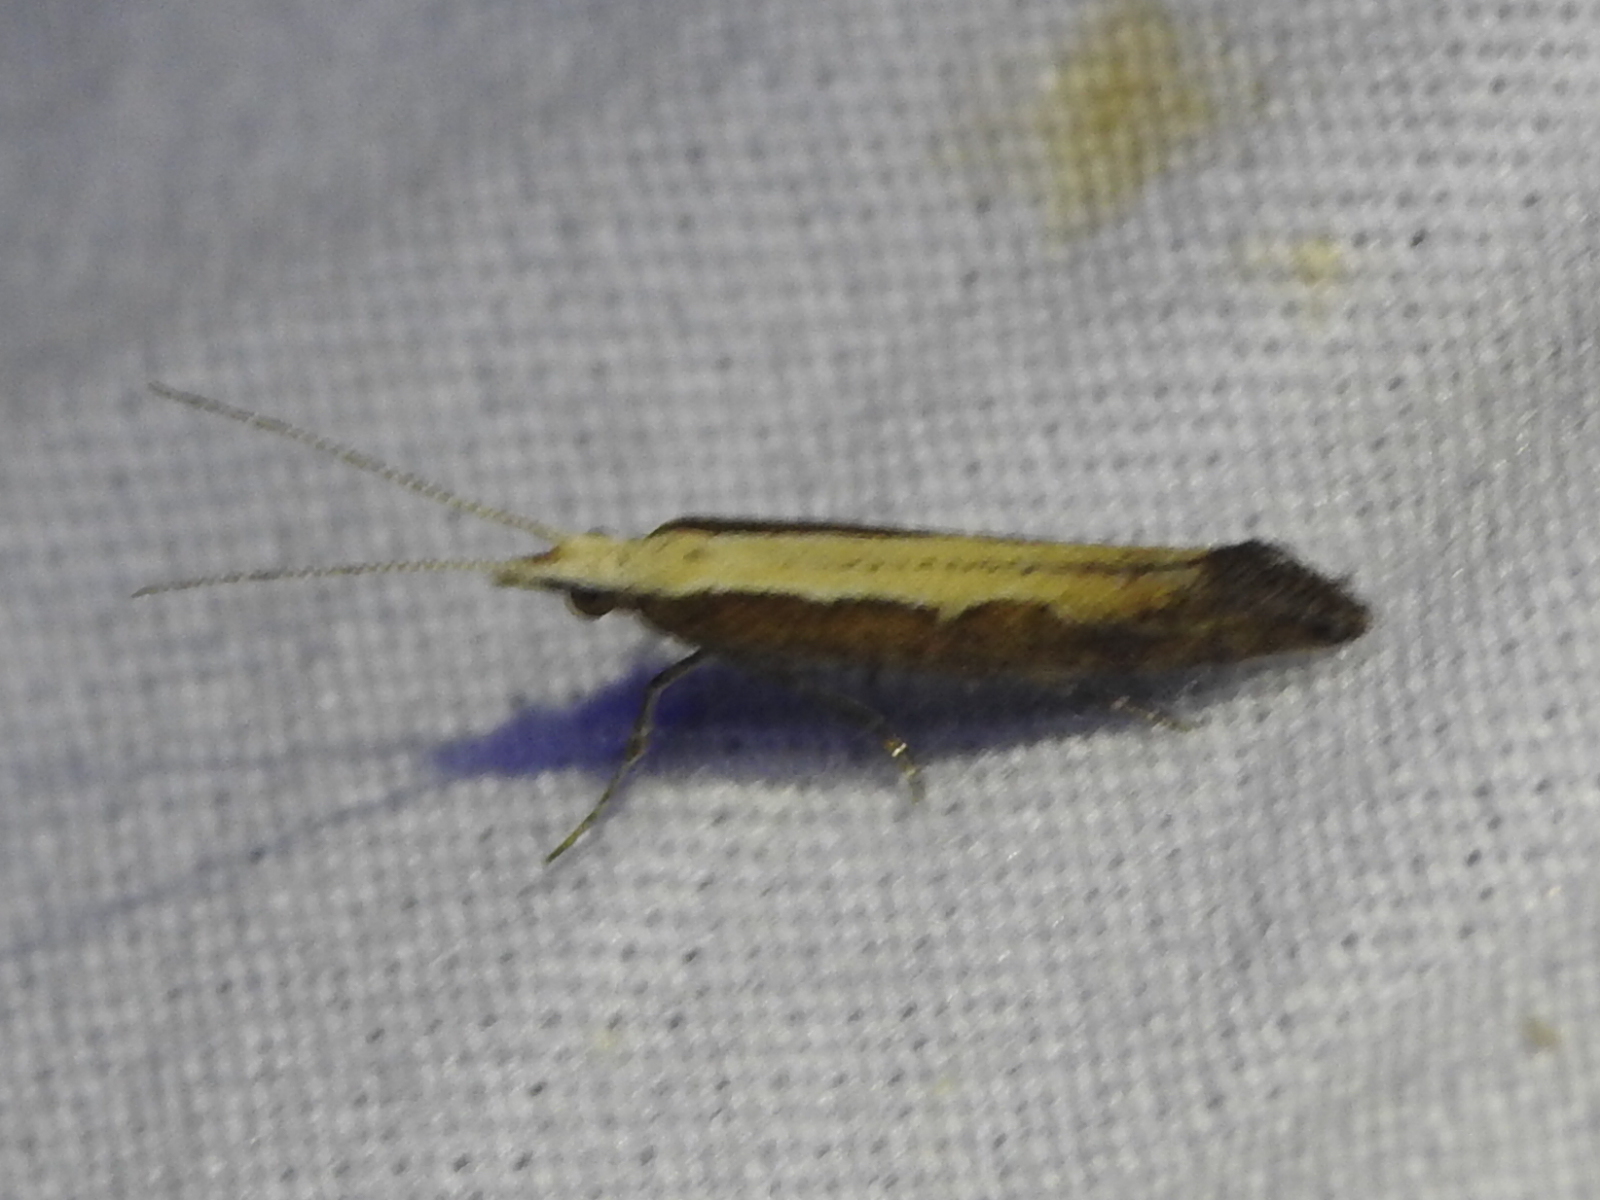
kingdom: Animalia
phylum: Arthropoda
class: Insecta
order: Lepidoptera
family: Plutellidae
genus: Plutella
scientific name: Plutella xylostella
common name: Diamond-back moth
